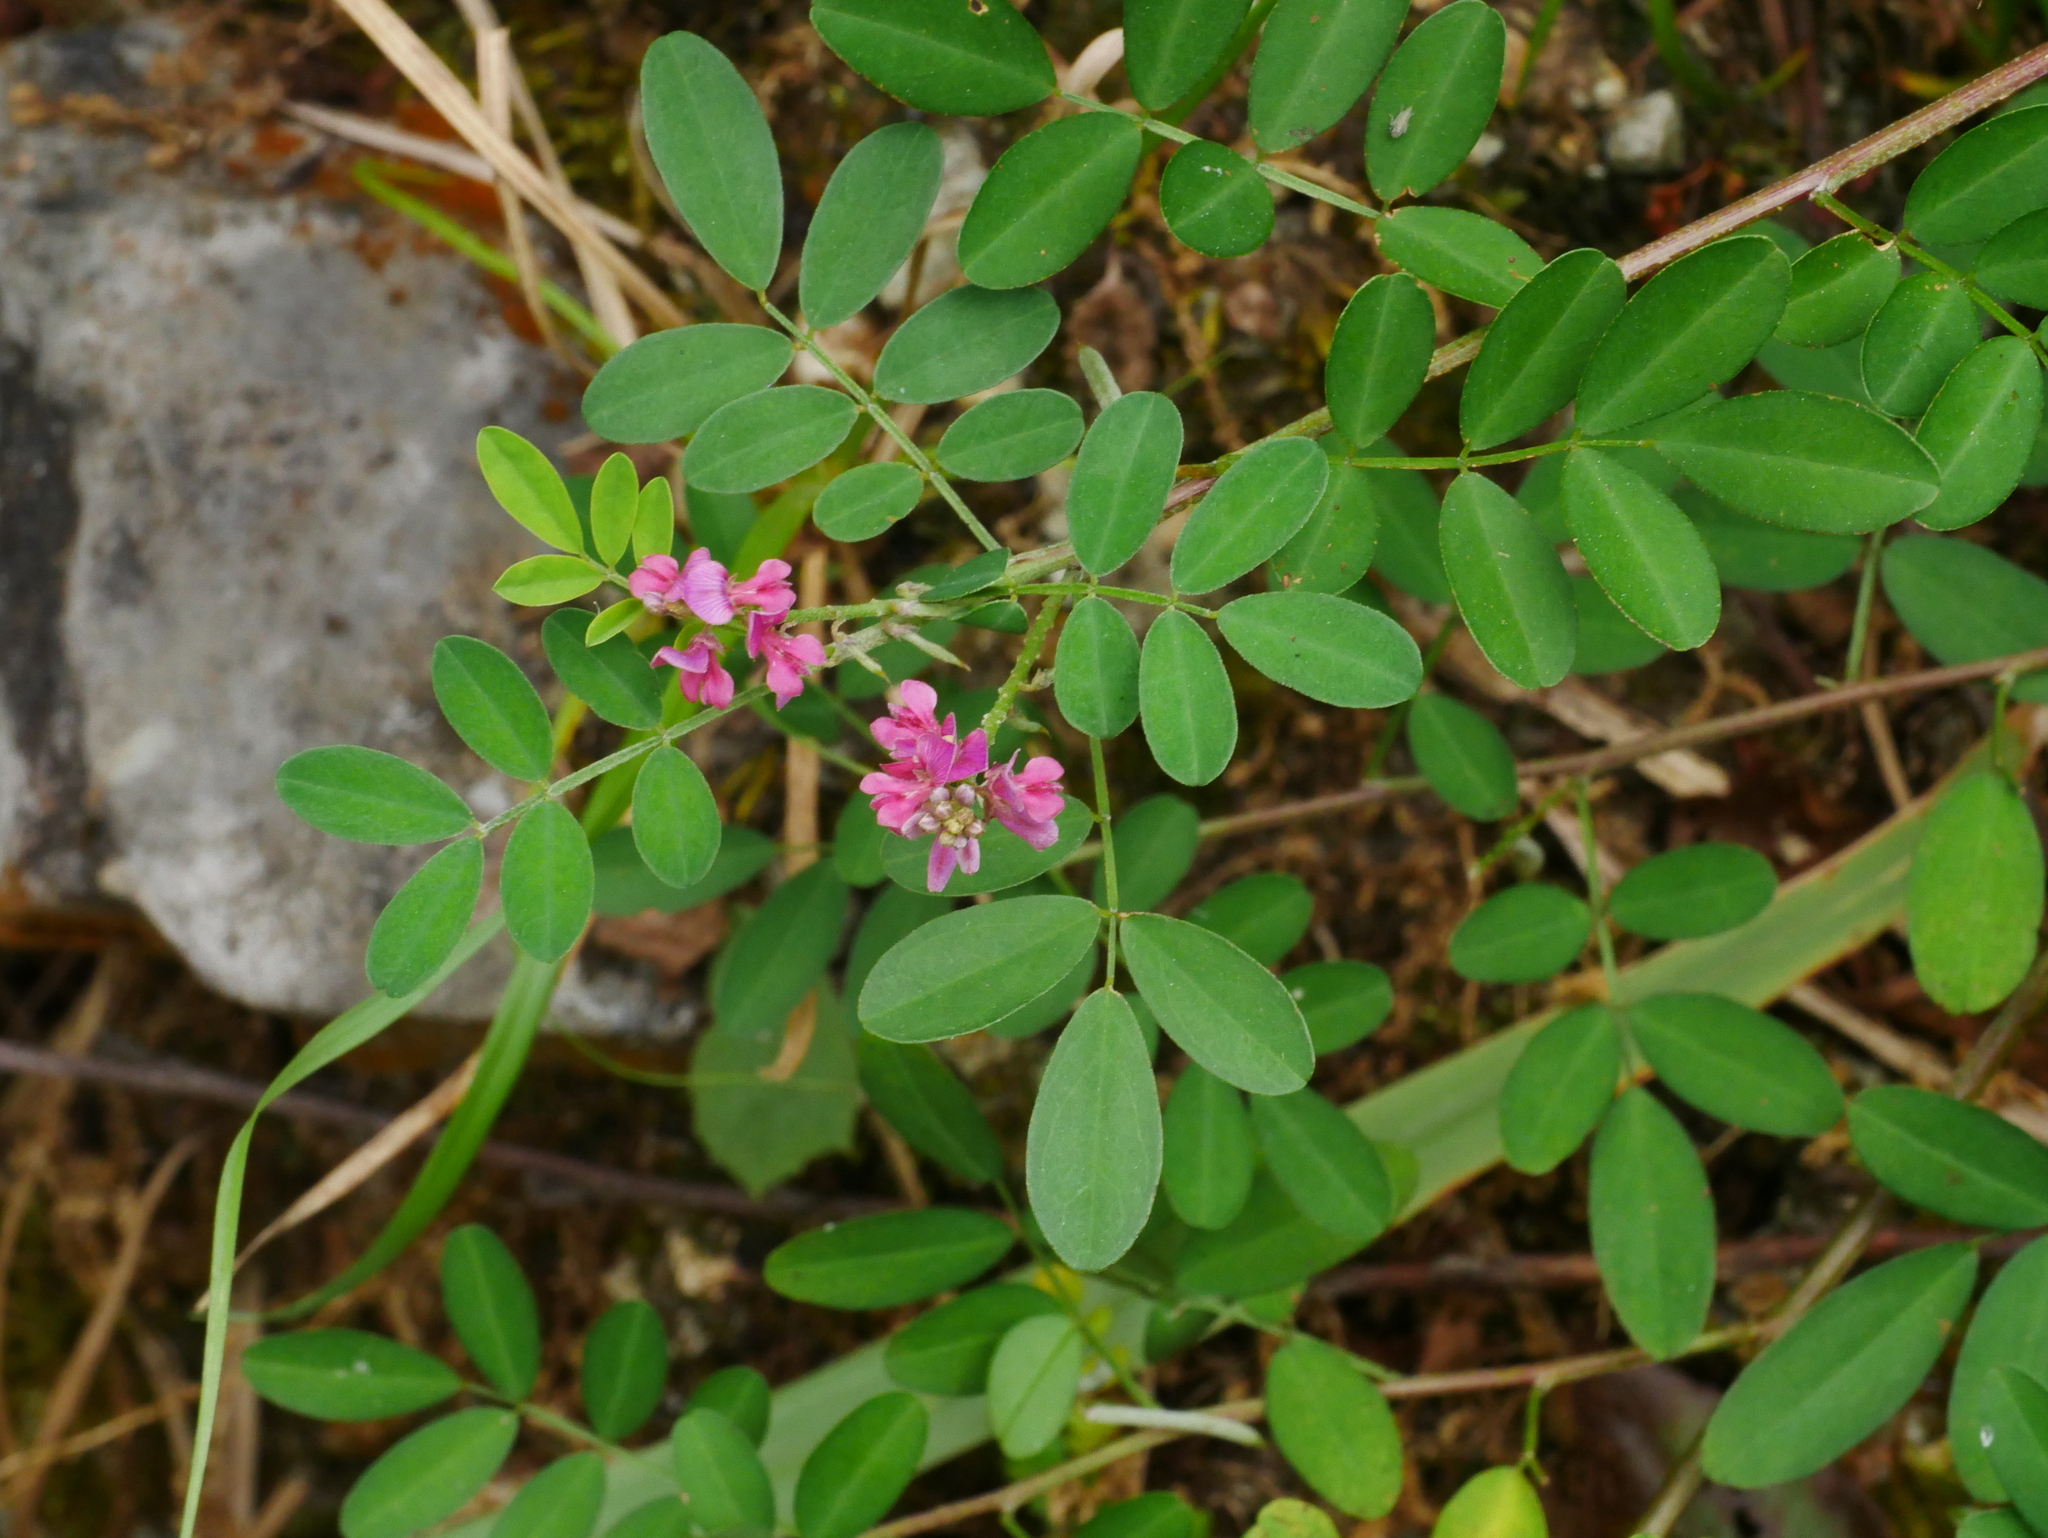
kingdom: Plantae
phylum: Tracheophyta
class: Magnoliopsida
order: Fabales
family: Fabaceae
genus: Indigofera
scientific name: Indigofera bungeana
